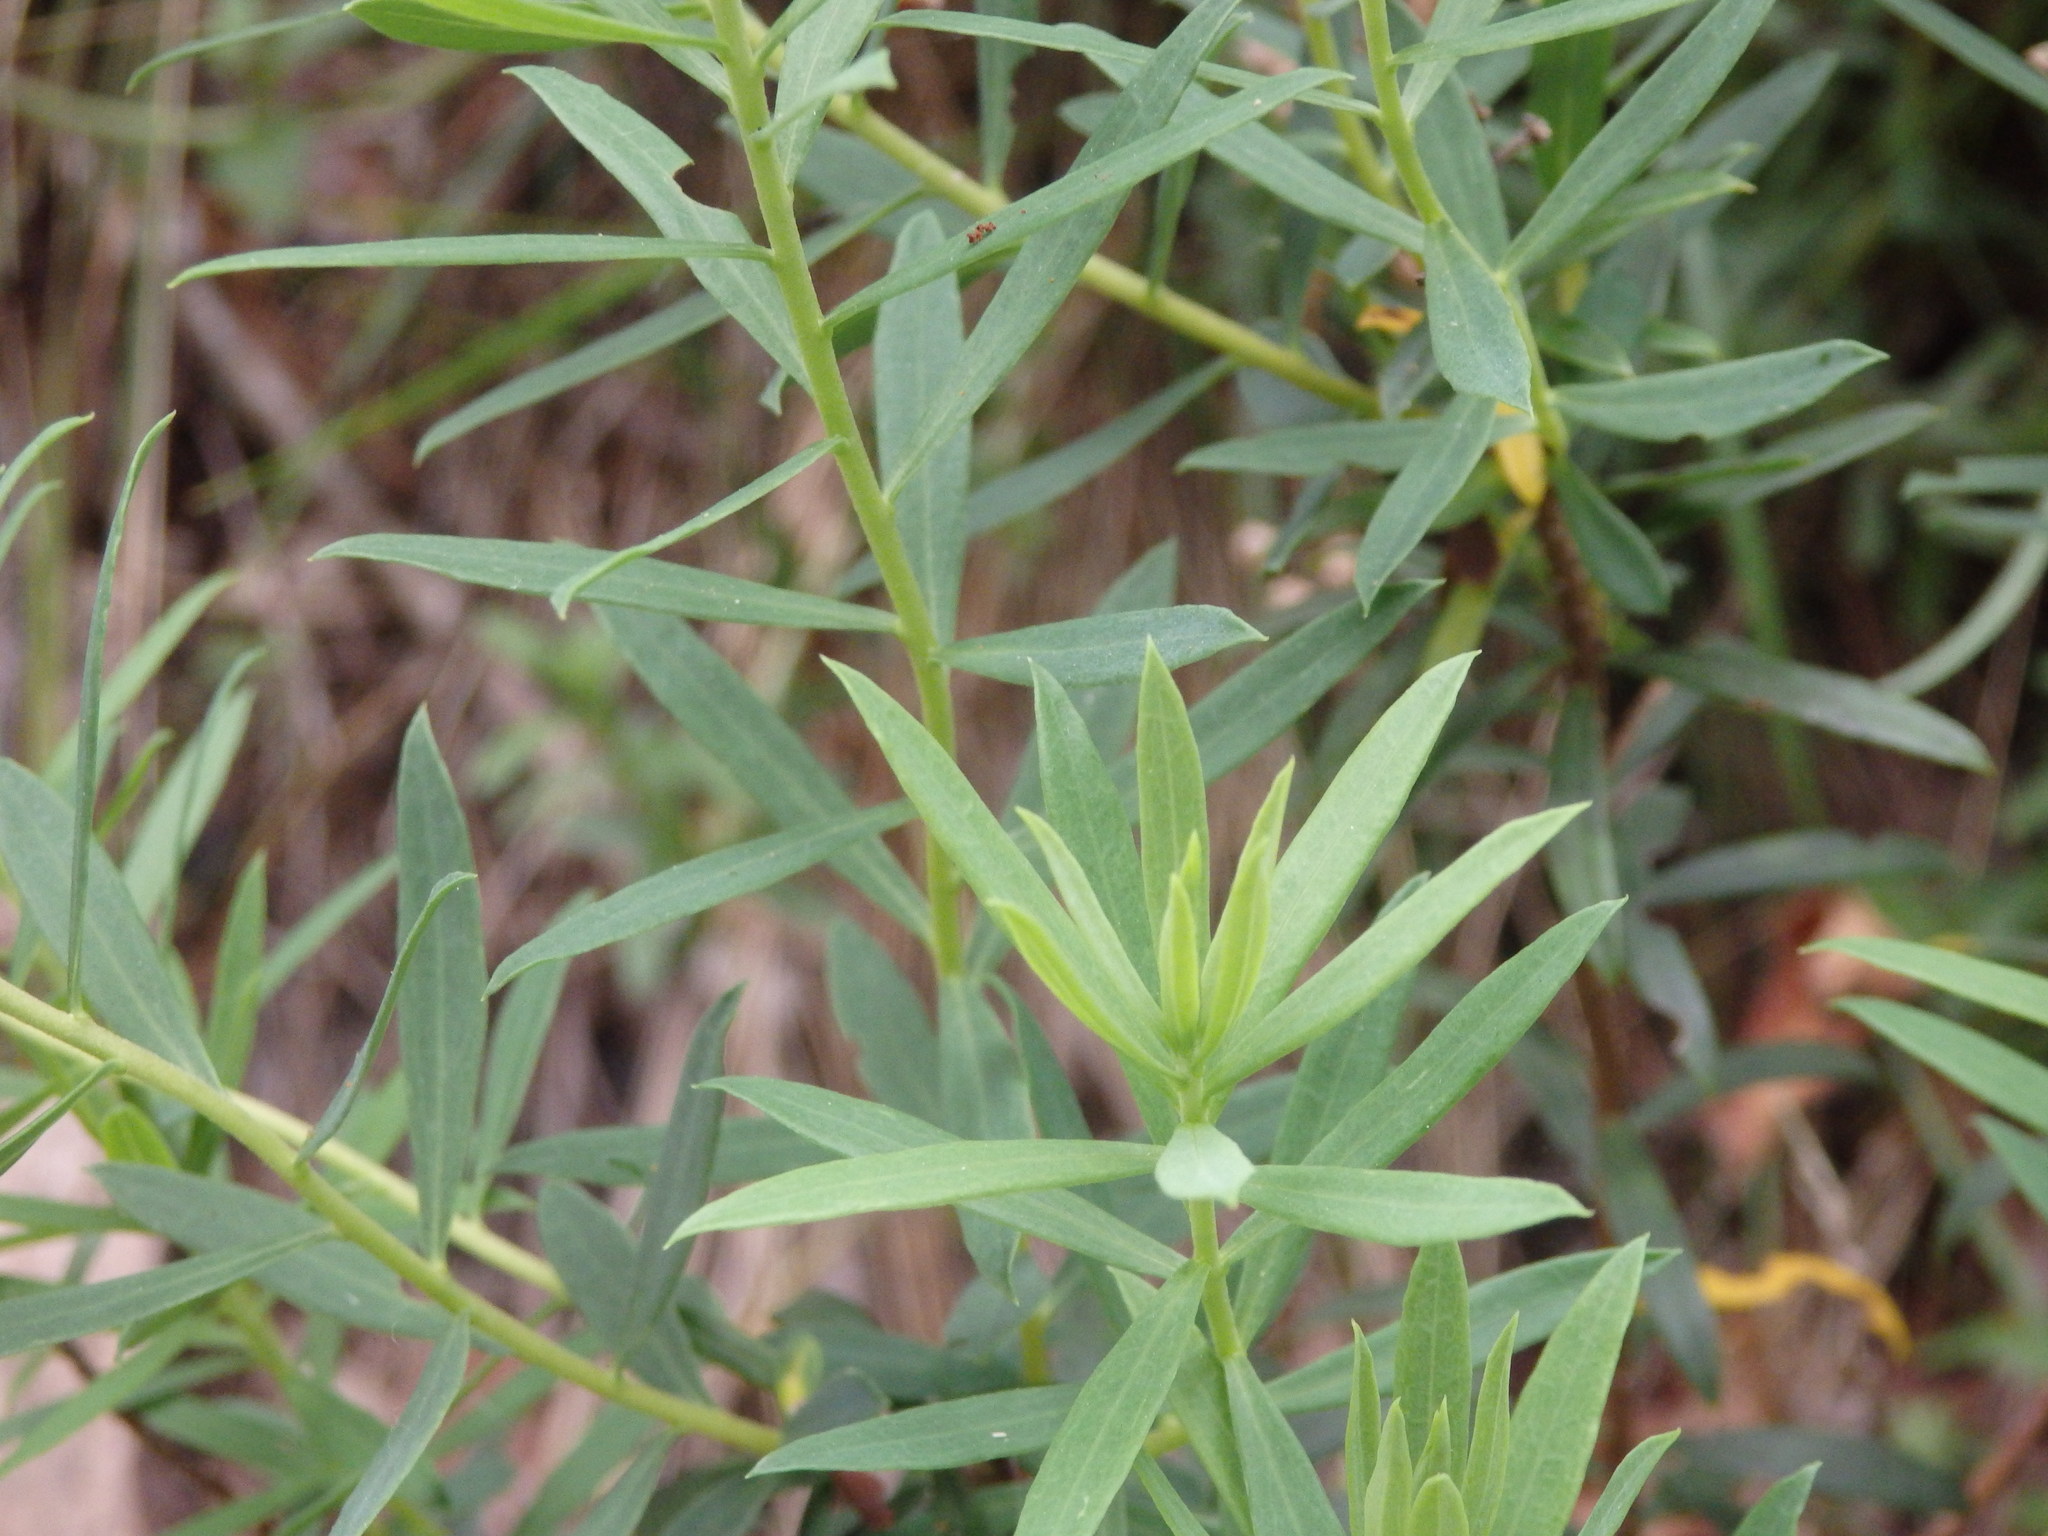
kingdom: Plantae
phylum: Tracheophyta
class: Magnoliopsida
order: Malvales
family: Thymelaeaceae
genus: Daphne
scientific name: Daphne gnidium
